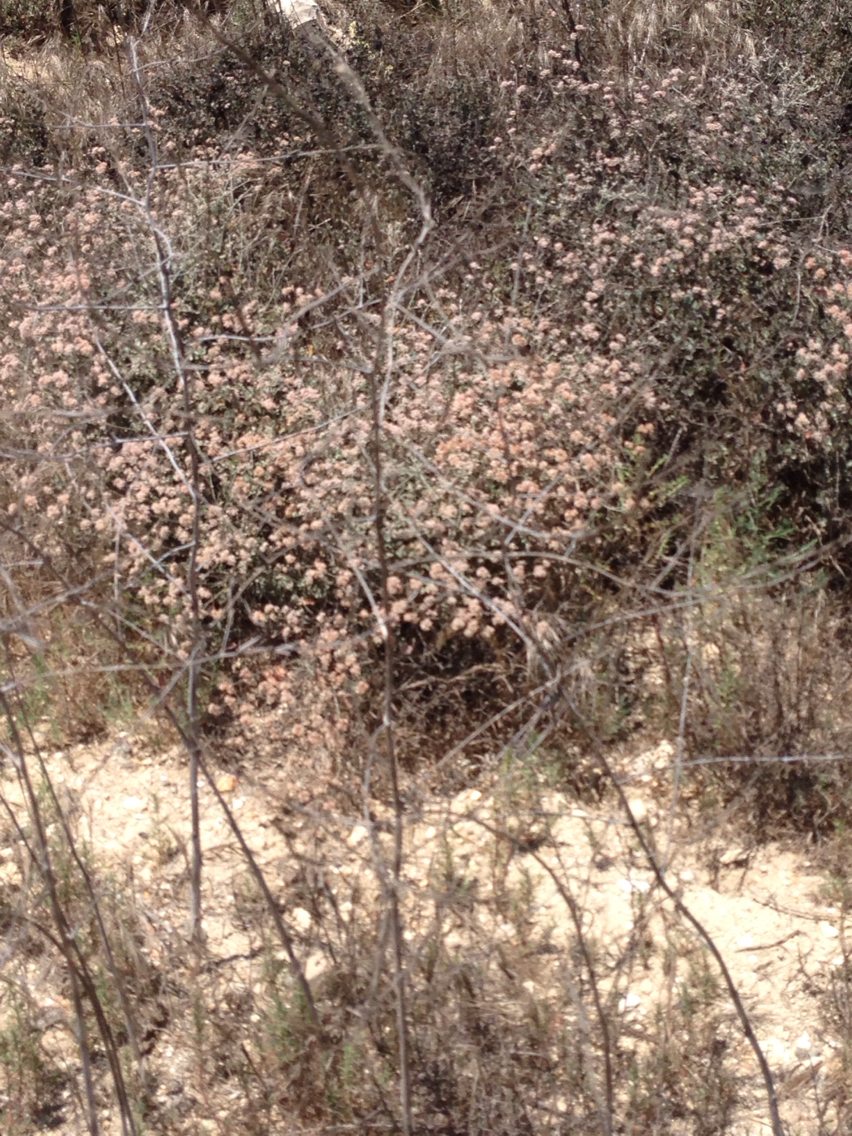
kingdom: Plantae
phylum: Tracheophyta
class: Magnoliopsida
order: Caryophyllales
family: Polygonaceae
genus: Eriogonum
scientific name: Eriogonum cinereum
